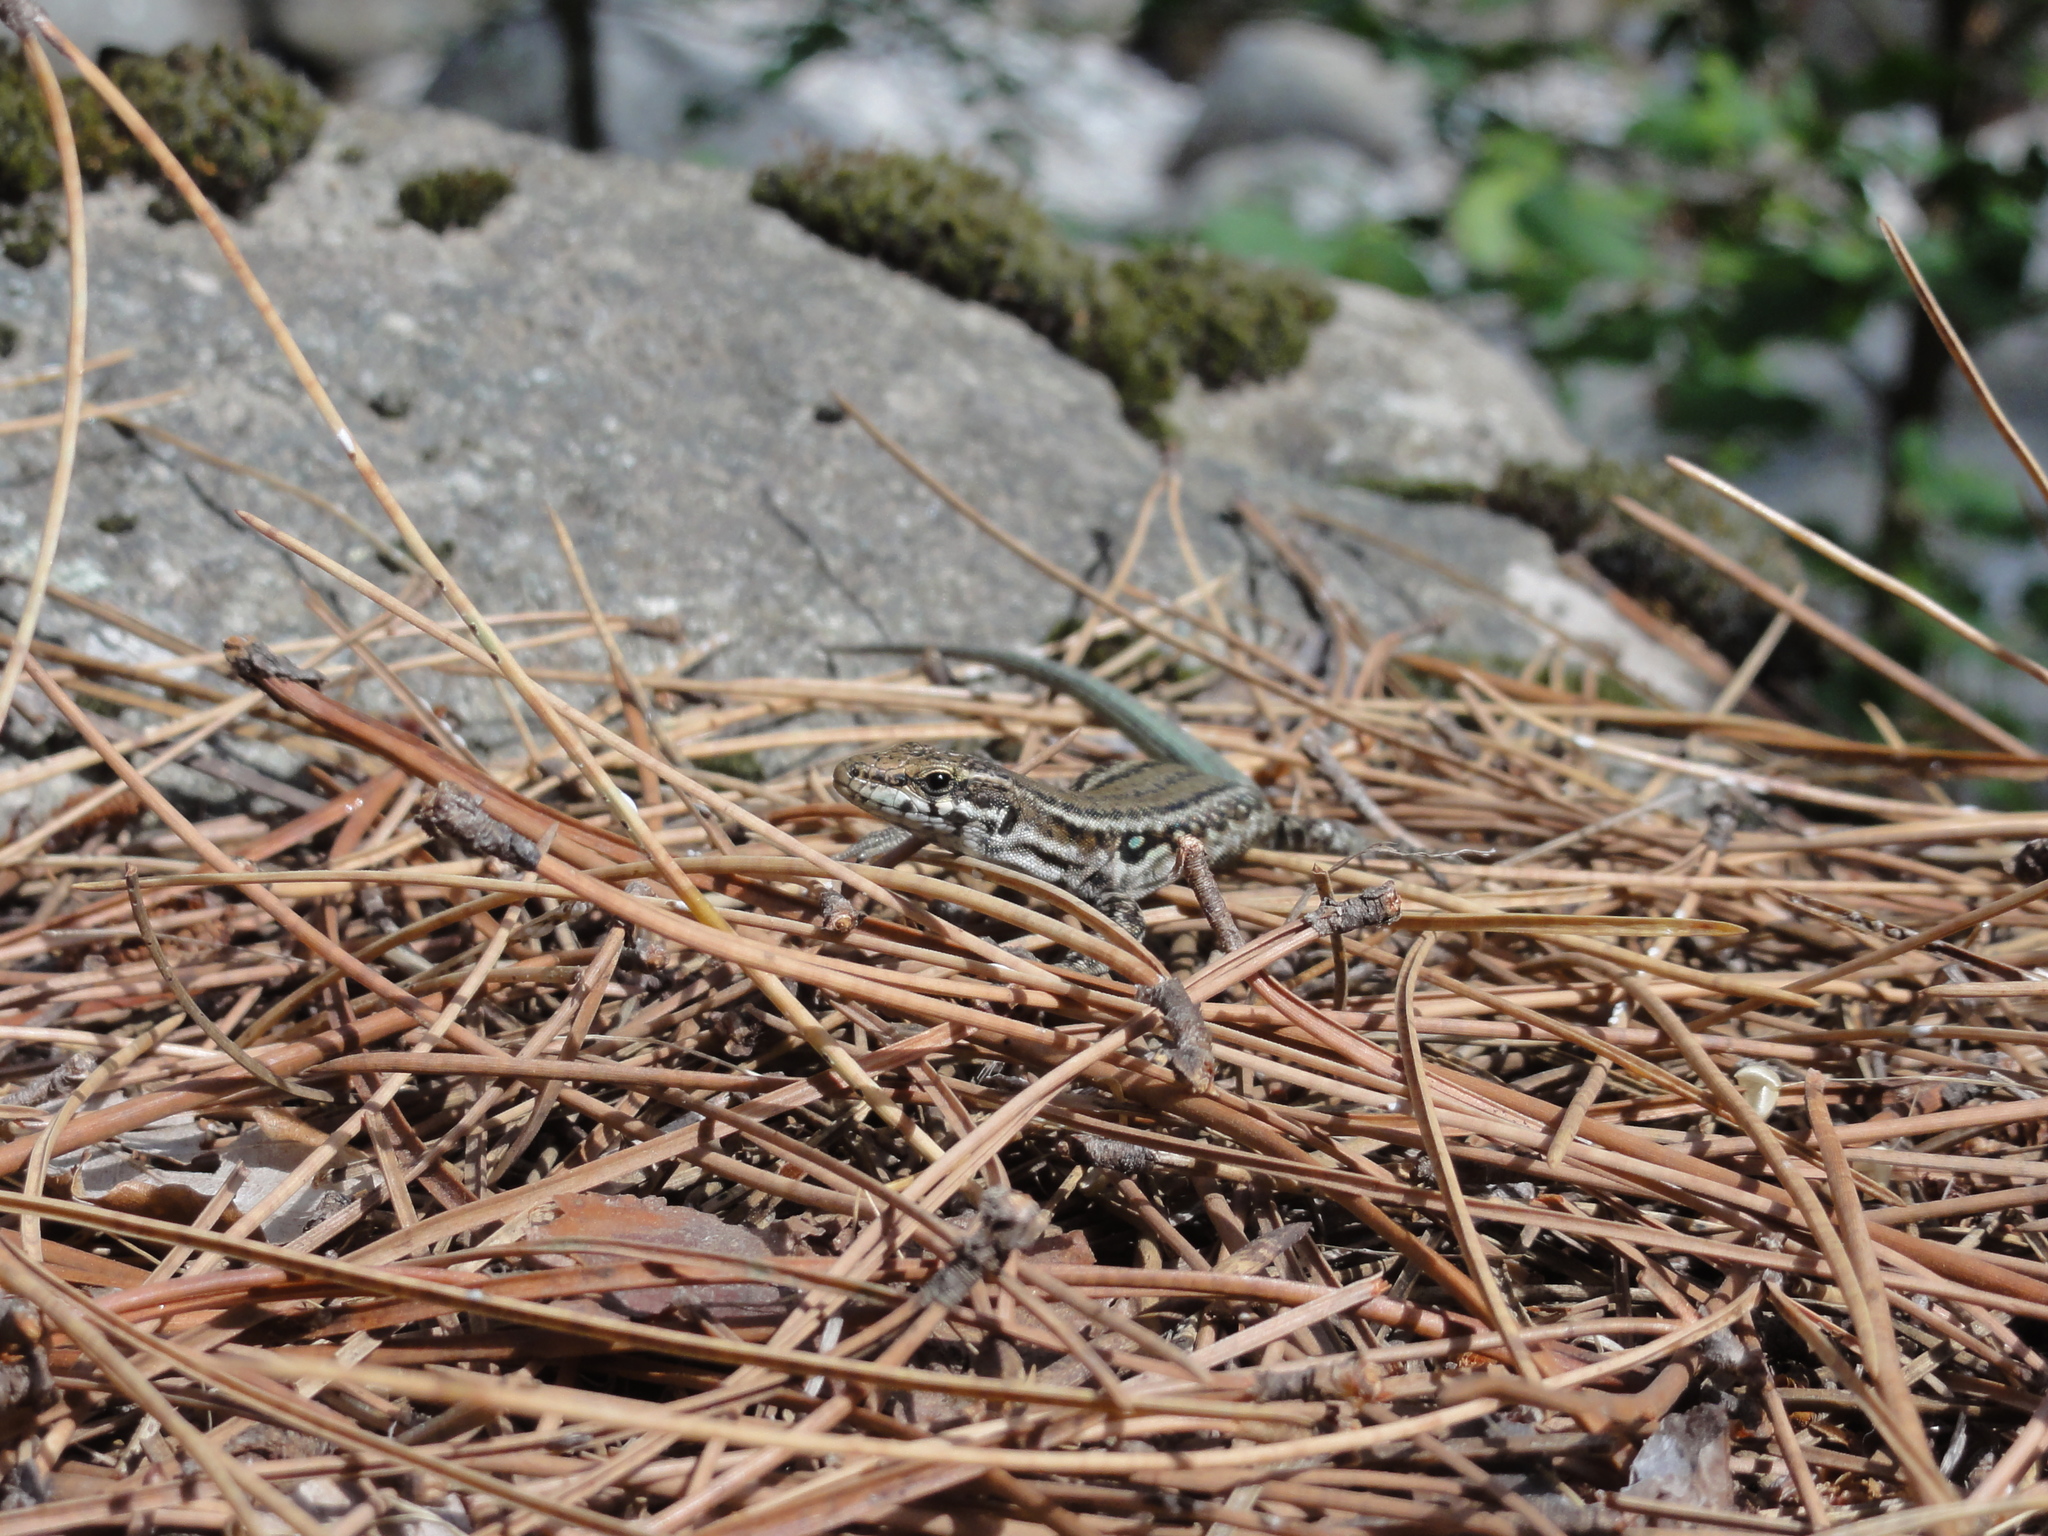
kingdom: Animalia
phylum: Chordata
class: Squamata
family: Lacertidae
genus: Podarcis
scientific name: Podarcis tiliguerta
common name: Tyrrhenian wall lizard
